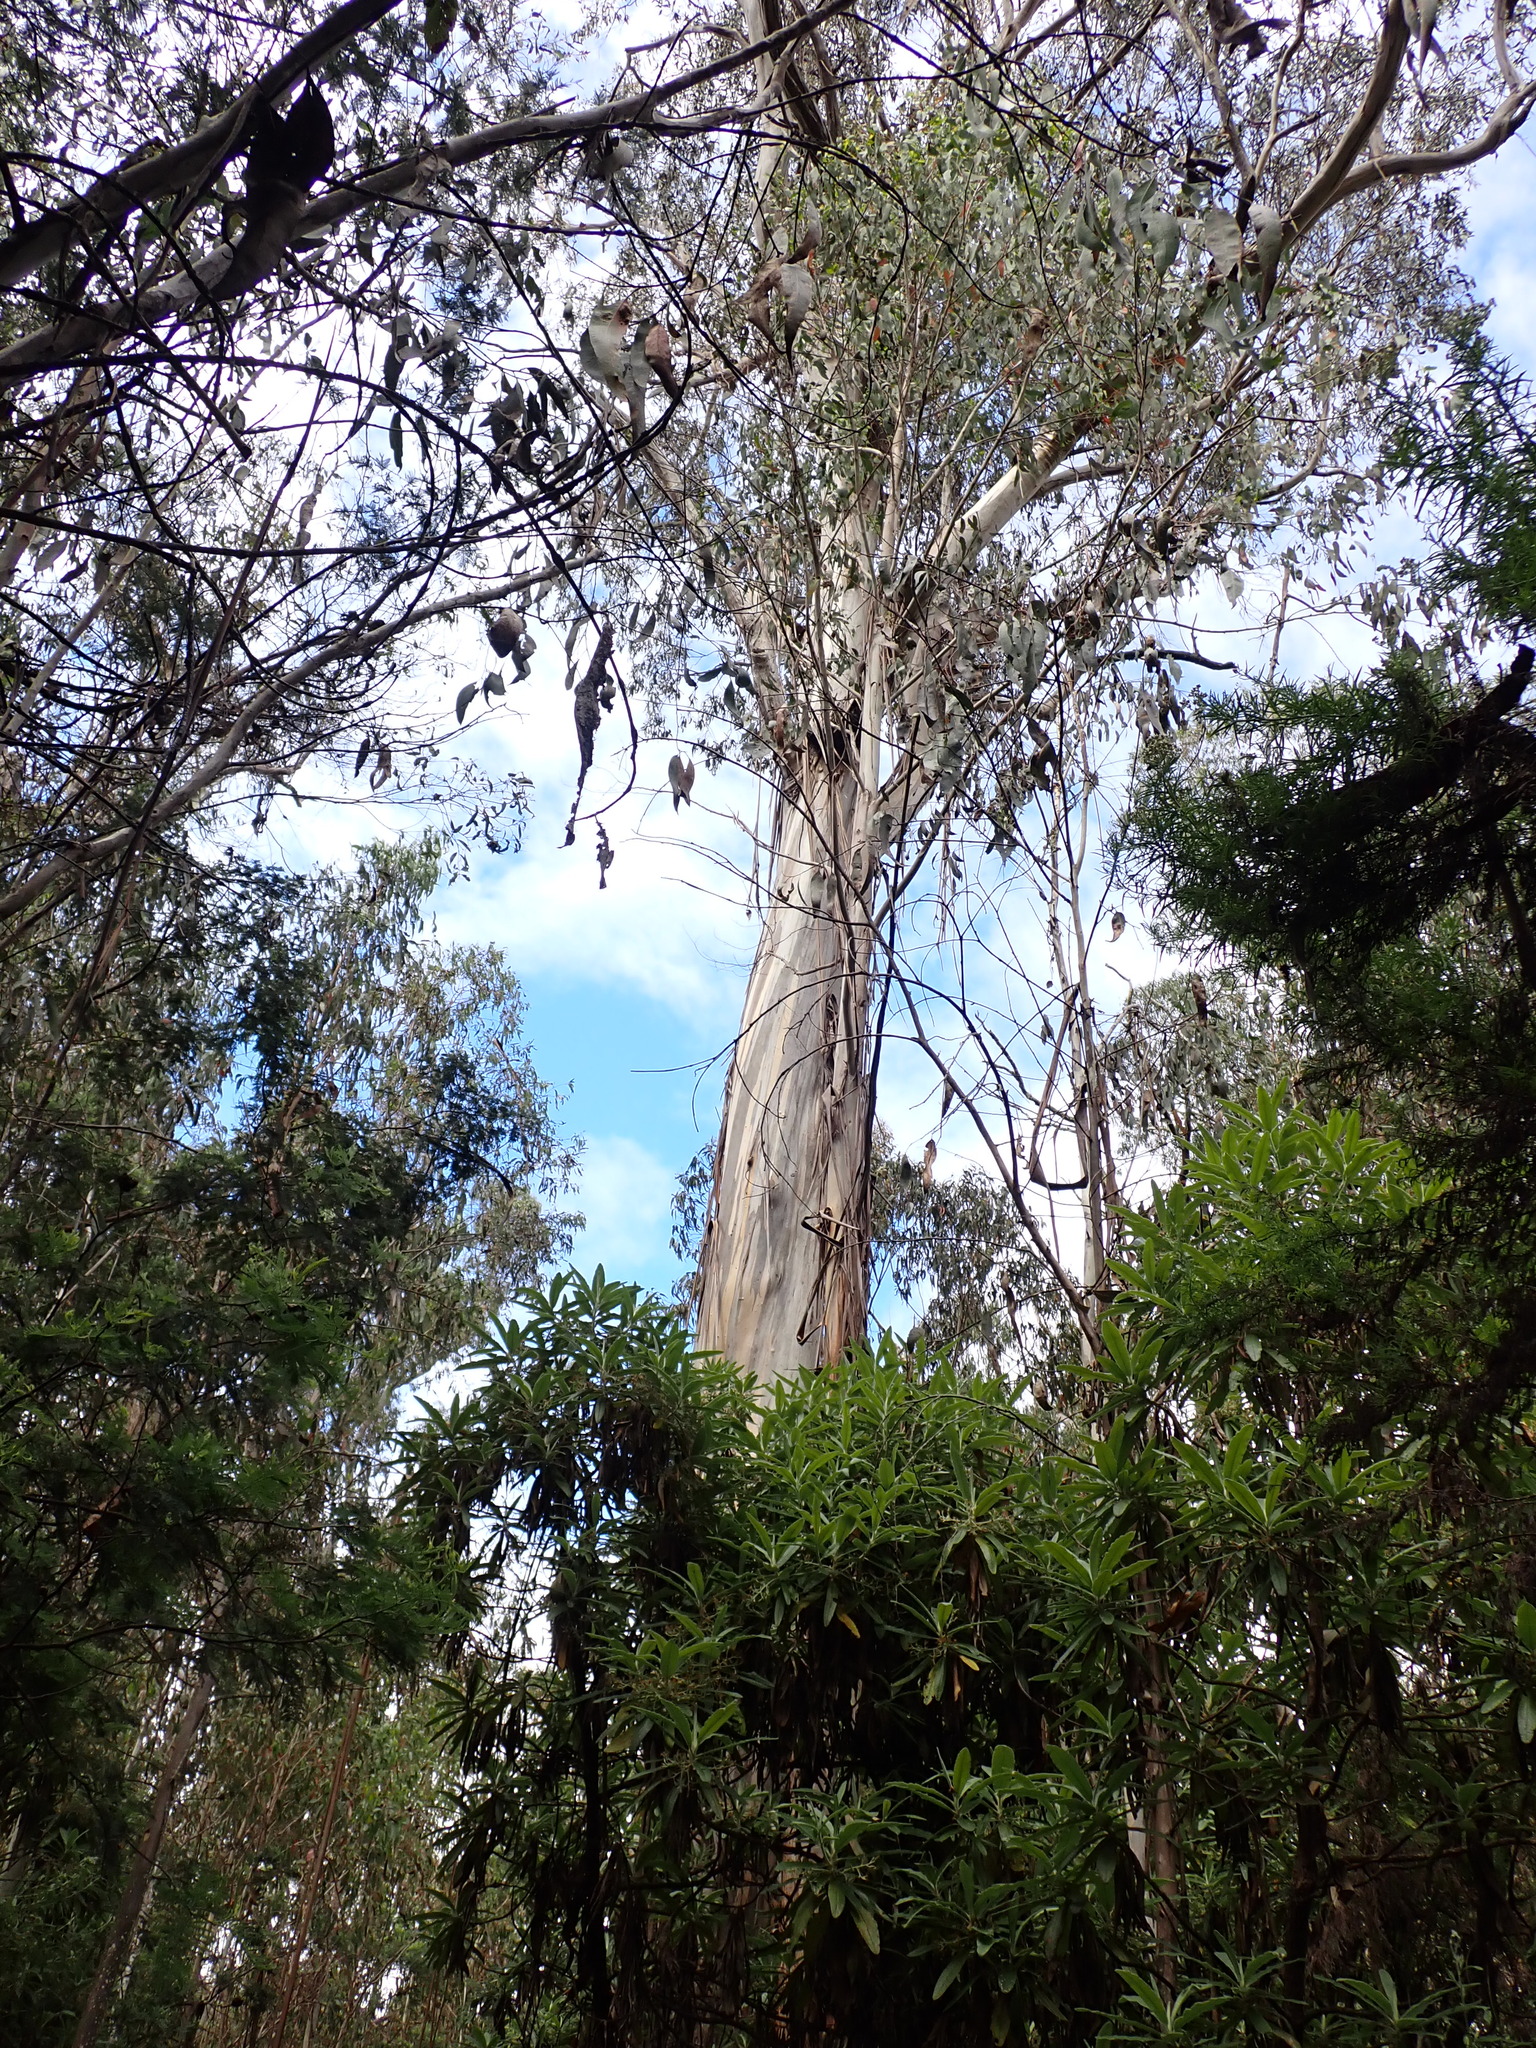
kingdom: Plantae
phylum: Tracheophyta
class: Magnoliopsida
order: Myrtales
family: Myrtaceae
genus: Eucalyptus
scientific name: Eucalyptus globulus
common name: Southern blue-gum
